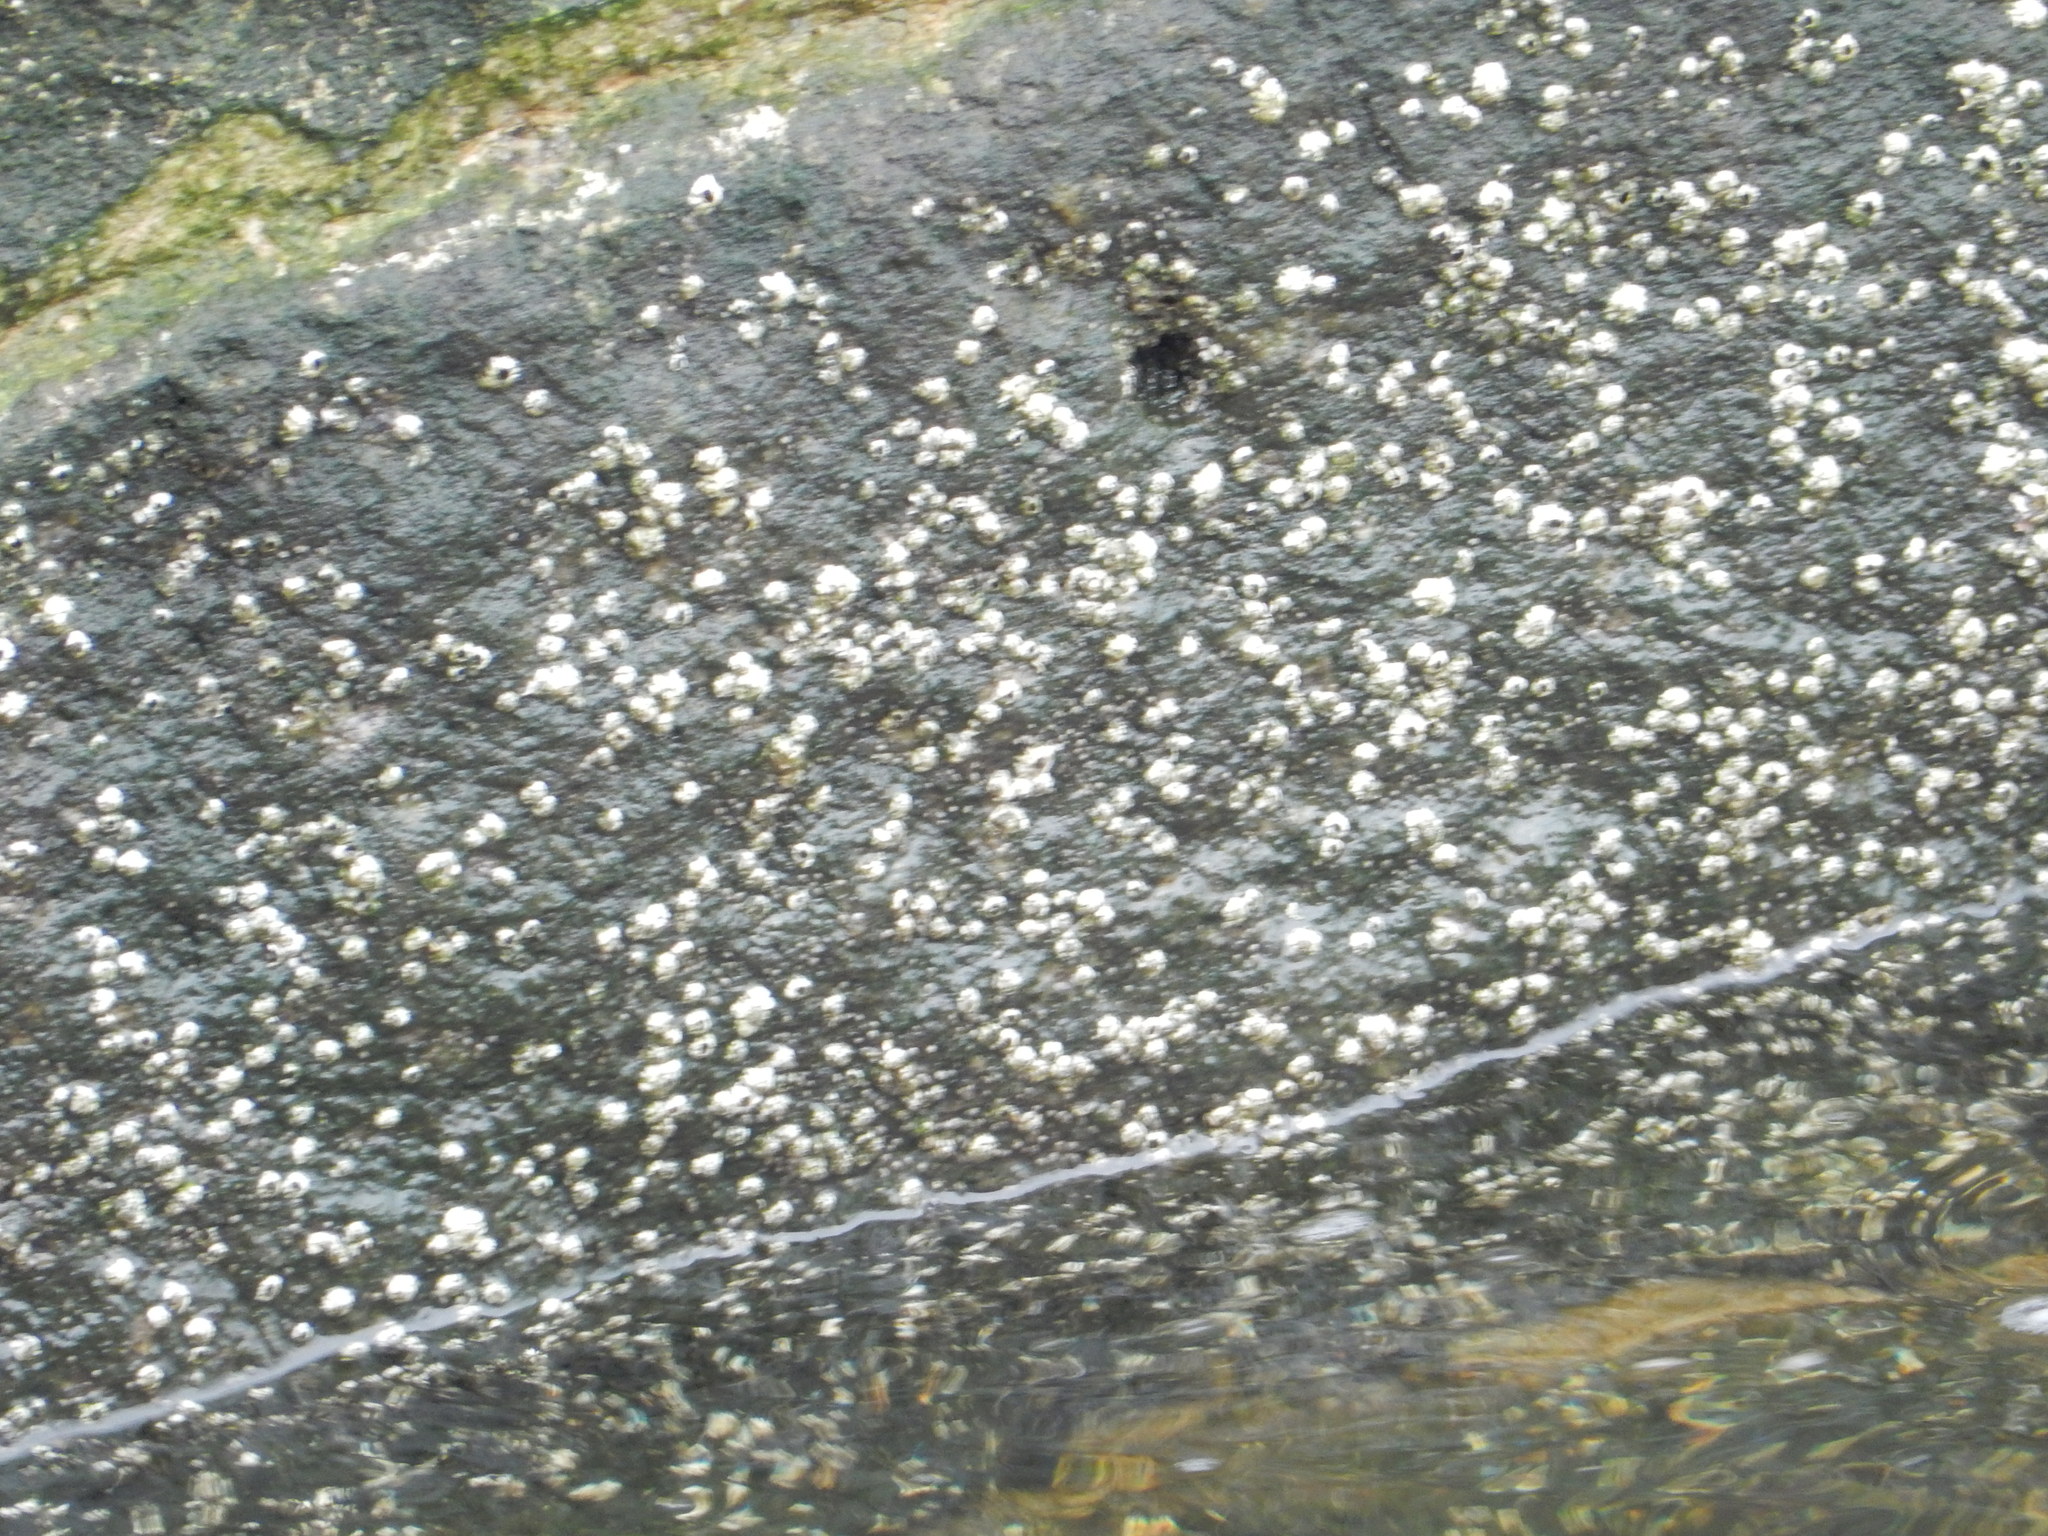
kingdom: Animalia
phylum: Arthropoda
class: Maxillopoda
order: Sessilia
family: Archaeobalanidae
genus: Semibalanus
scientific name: Semibalanus balanoides
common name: Acorn barnacle
